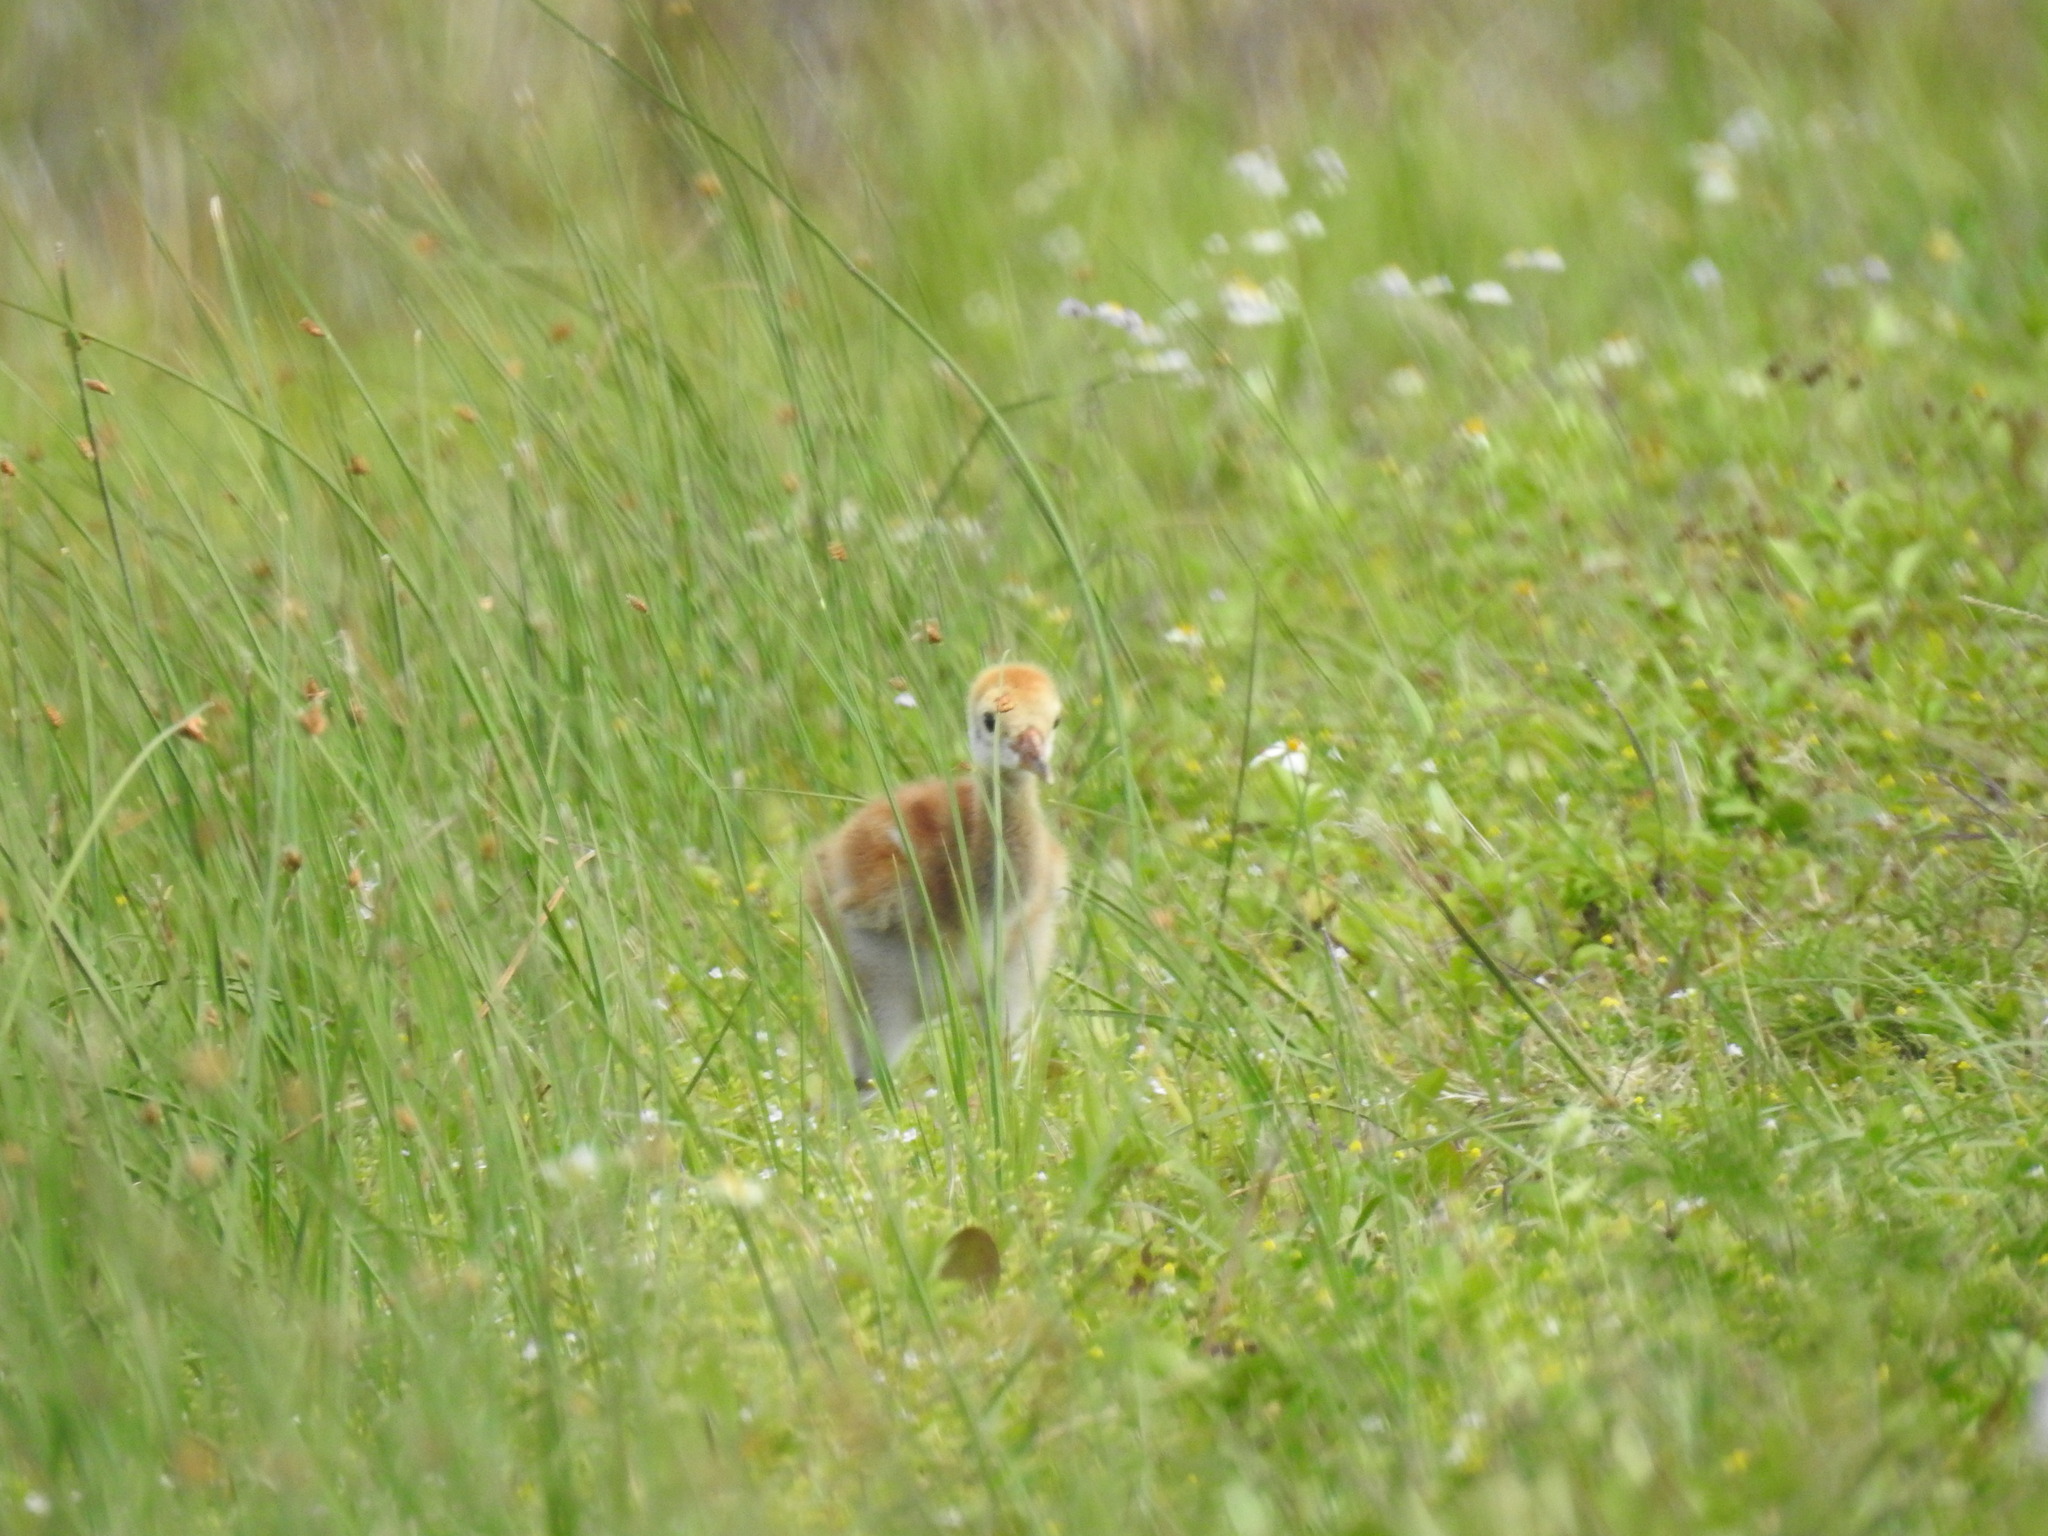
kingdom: Animalia
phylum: Chordata
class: Aves
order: Gruiformes
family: Gruidae
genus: Grus
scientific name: Grus canadensis
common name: Sandhill crane
